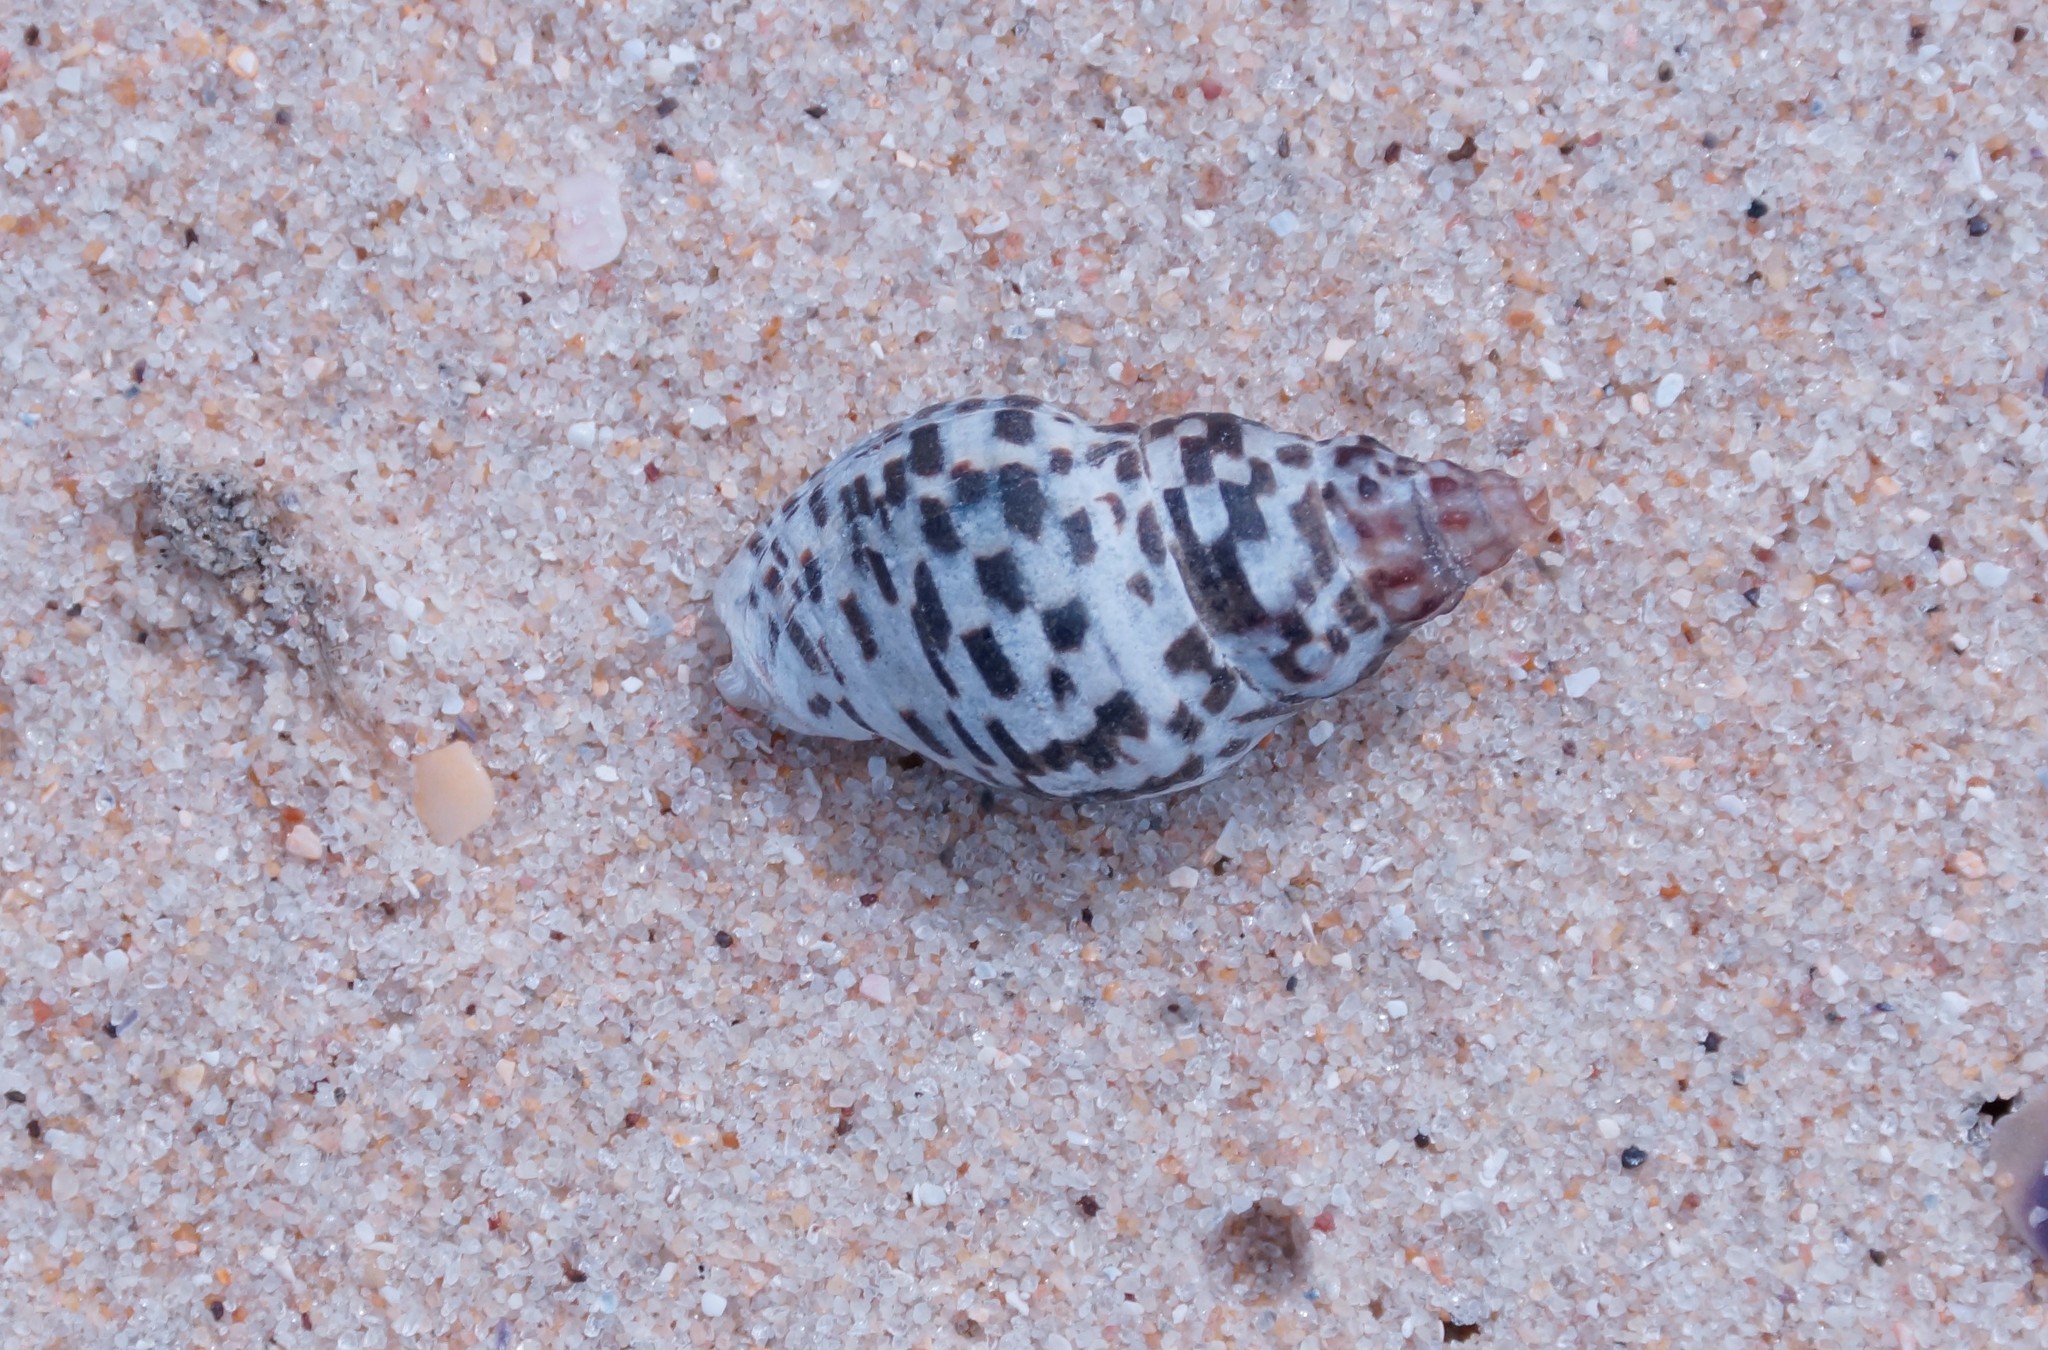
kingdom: Animalia
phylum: Mollusca
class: Gastropoda
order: Neogastropoda
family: Cominellidae
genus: Cominella
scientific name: Cominella lineolata
